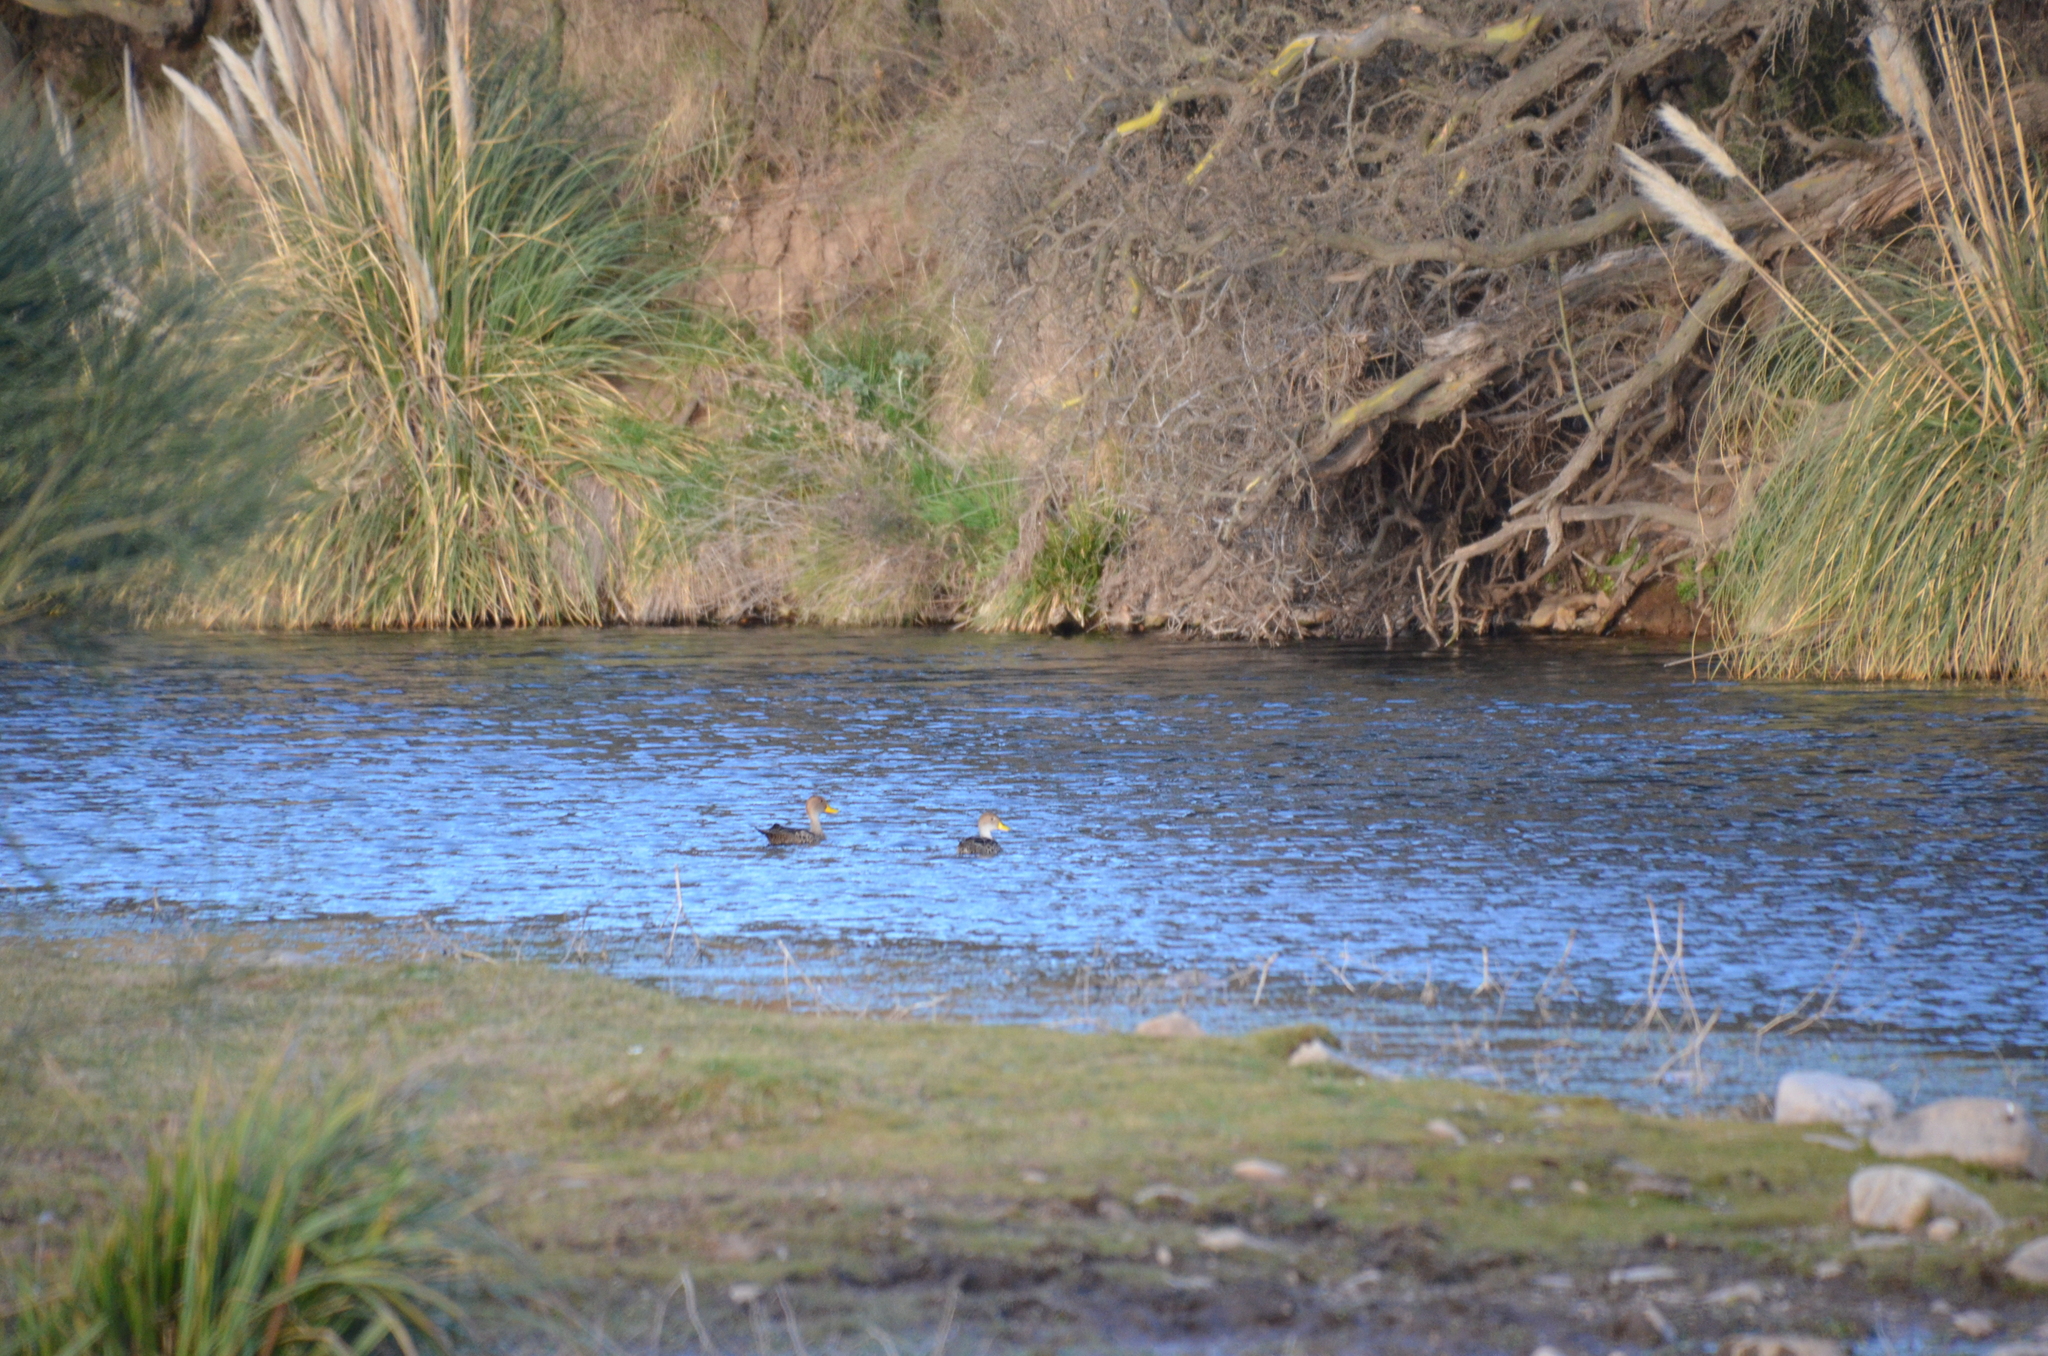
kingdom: Animalia
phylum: Chordata
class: Aves
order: Anseriformes
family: Anatidae
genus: Anas
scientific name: Anas georgica
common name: Yellow-billed pintail
